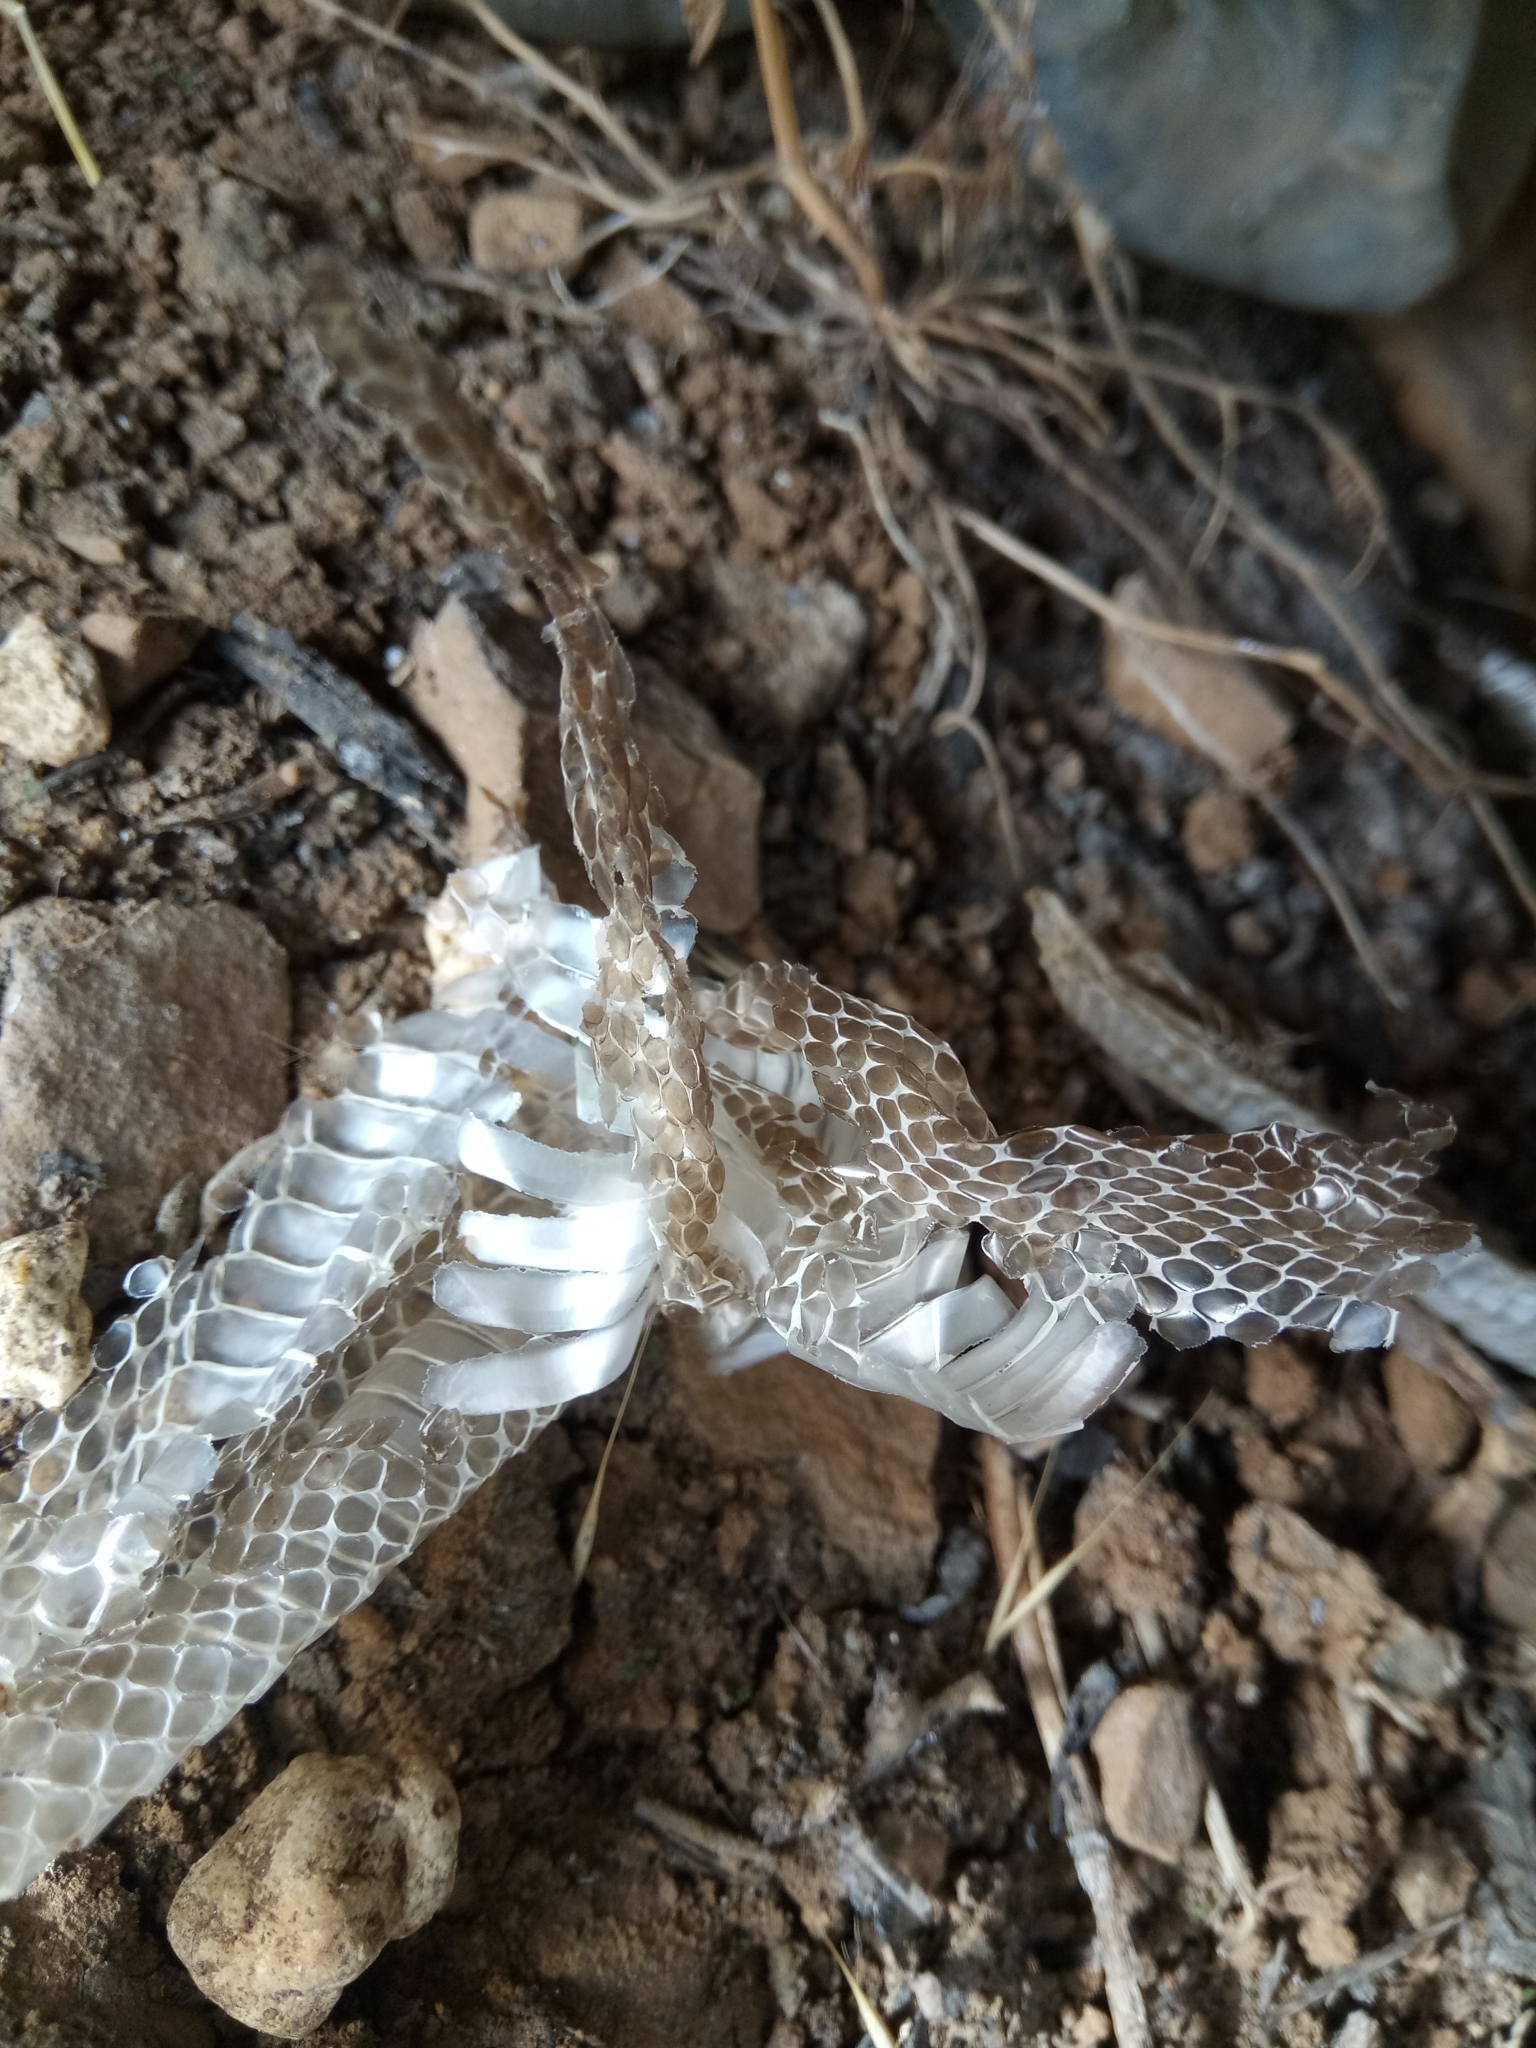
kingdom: Animalia
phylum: Chordata
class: Squamata
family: Colubridae
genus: Hemorrhois
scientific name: Hemorrhois hippocrepis
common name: Horseshoe whip snake
